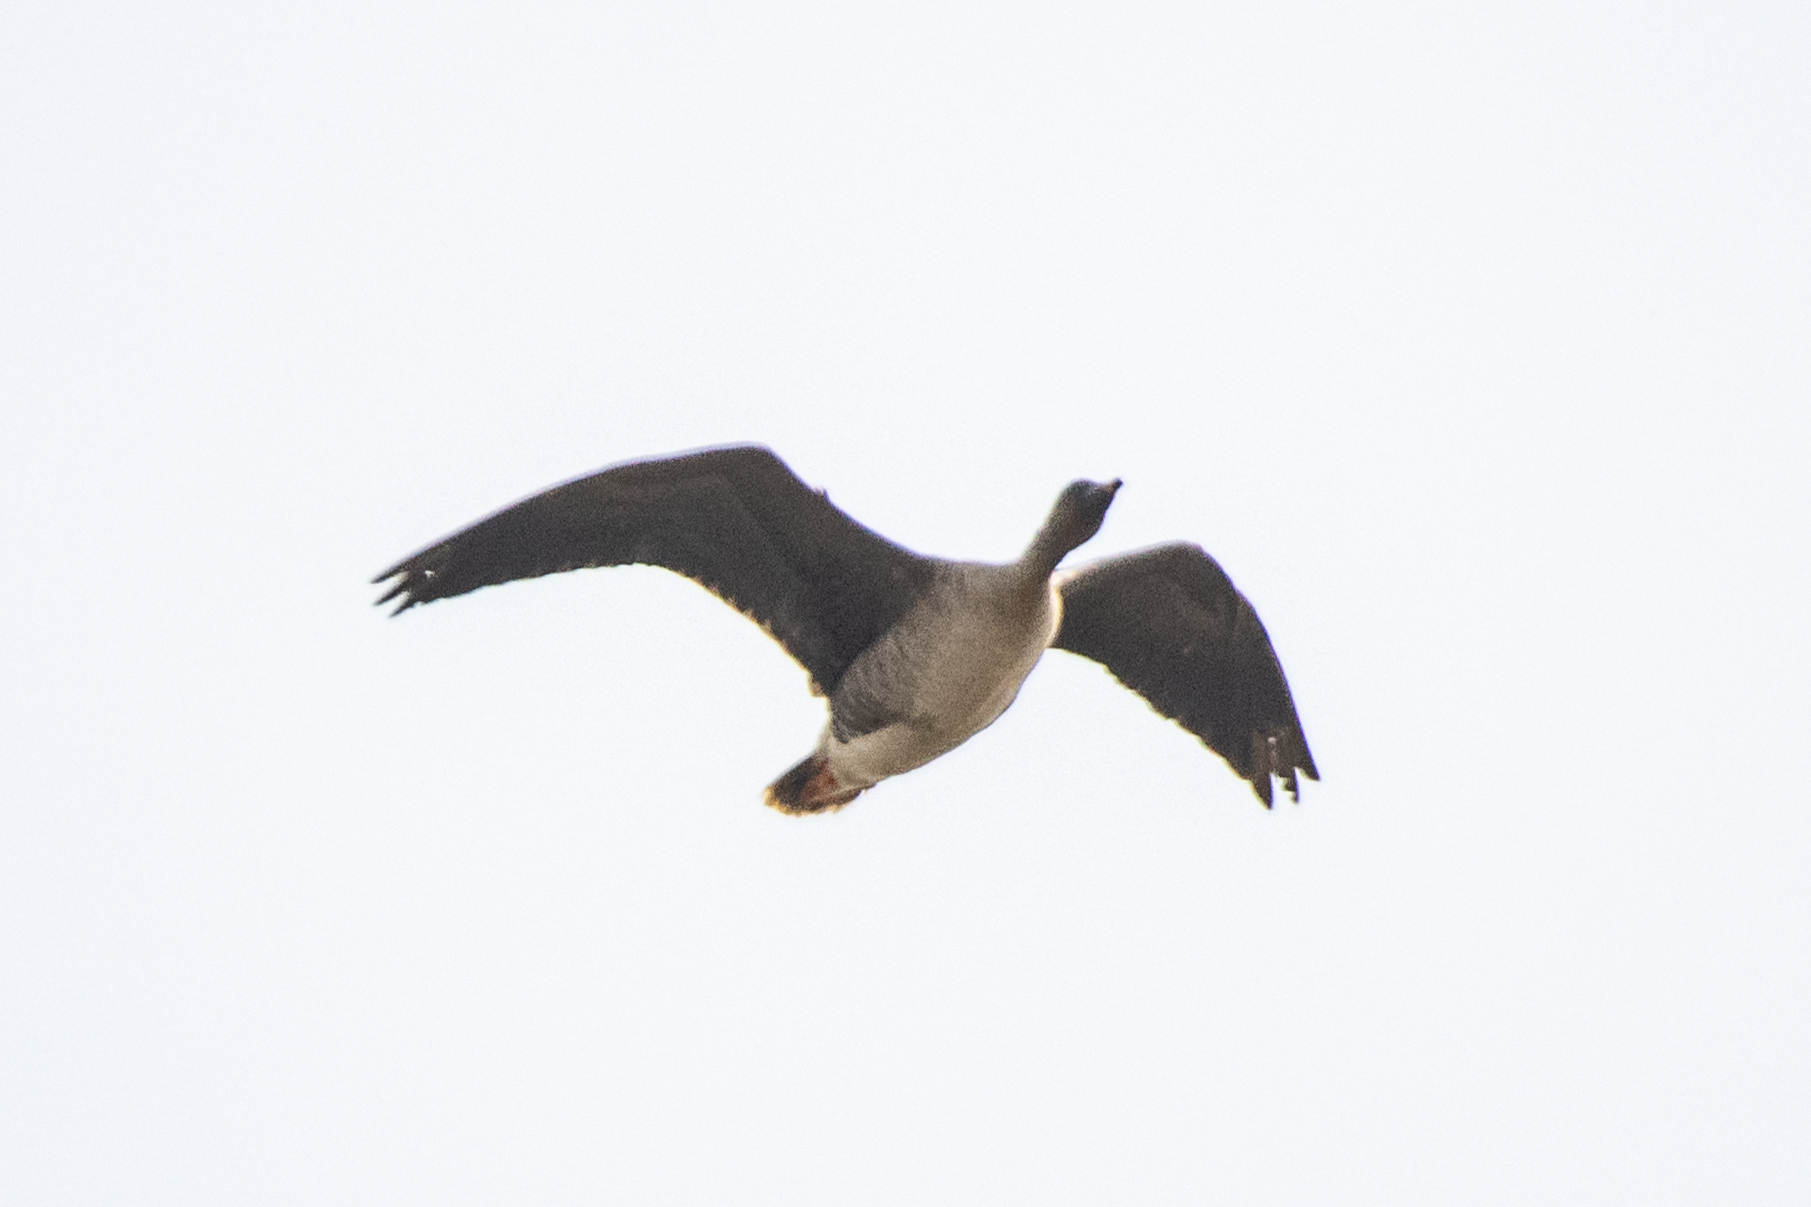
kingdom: Animalia
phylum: Chordata
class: Aves
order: Anseriformes
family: Anatidae
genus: Anser
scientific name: Anser fabalis
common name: Bean goose
